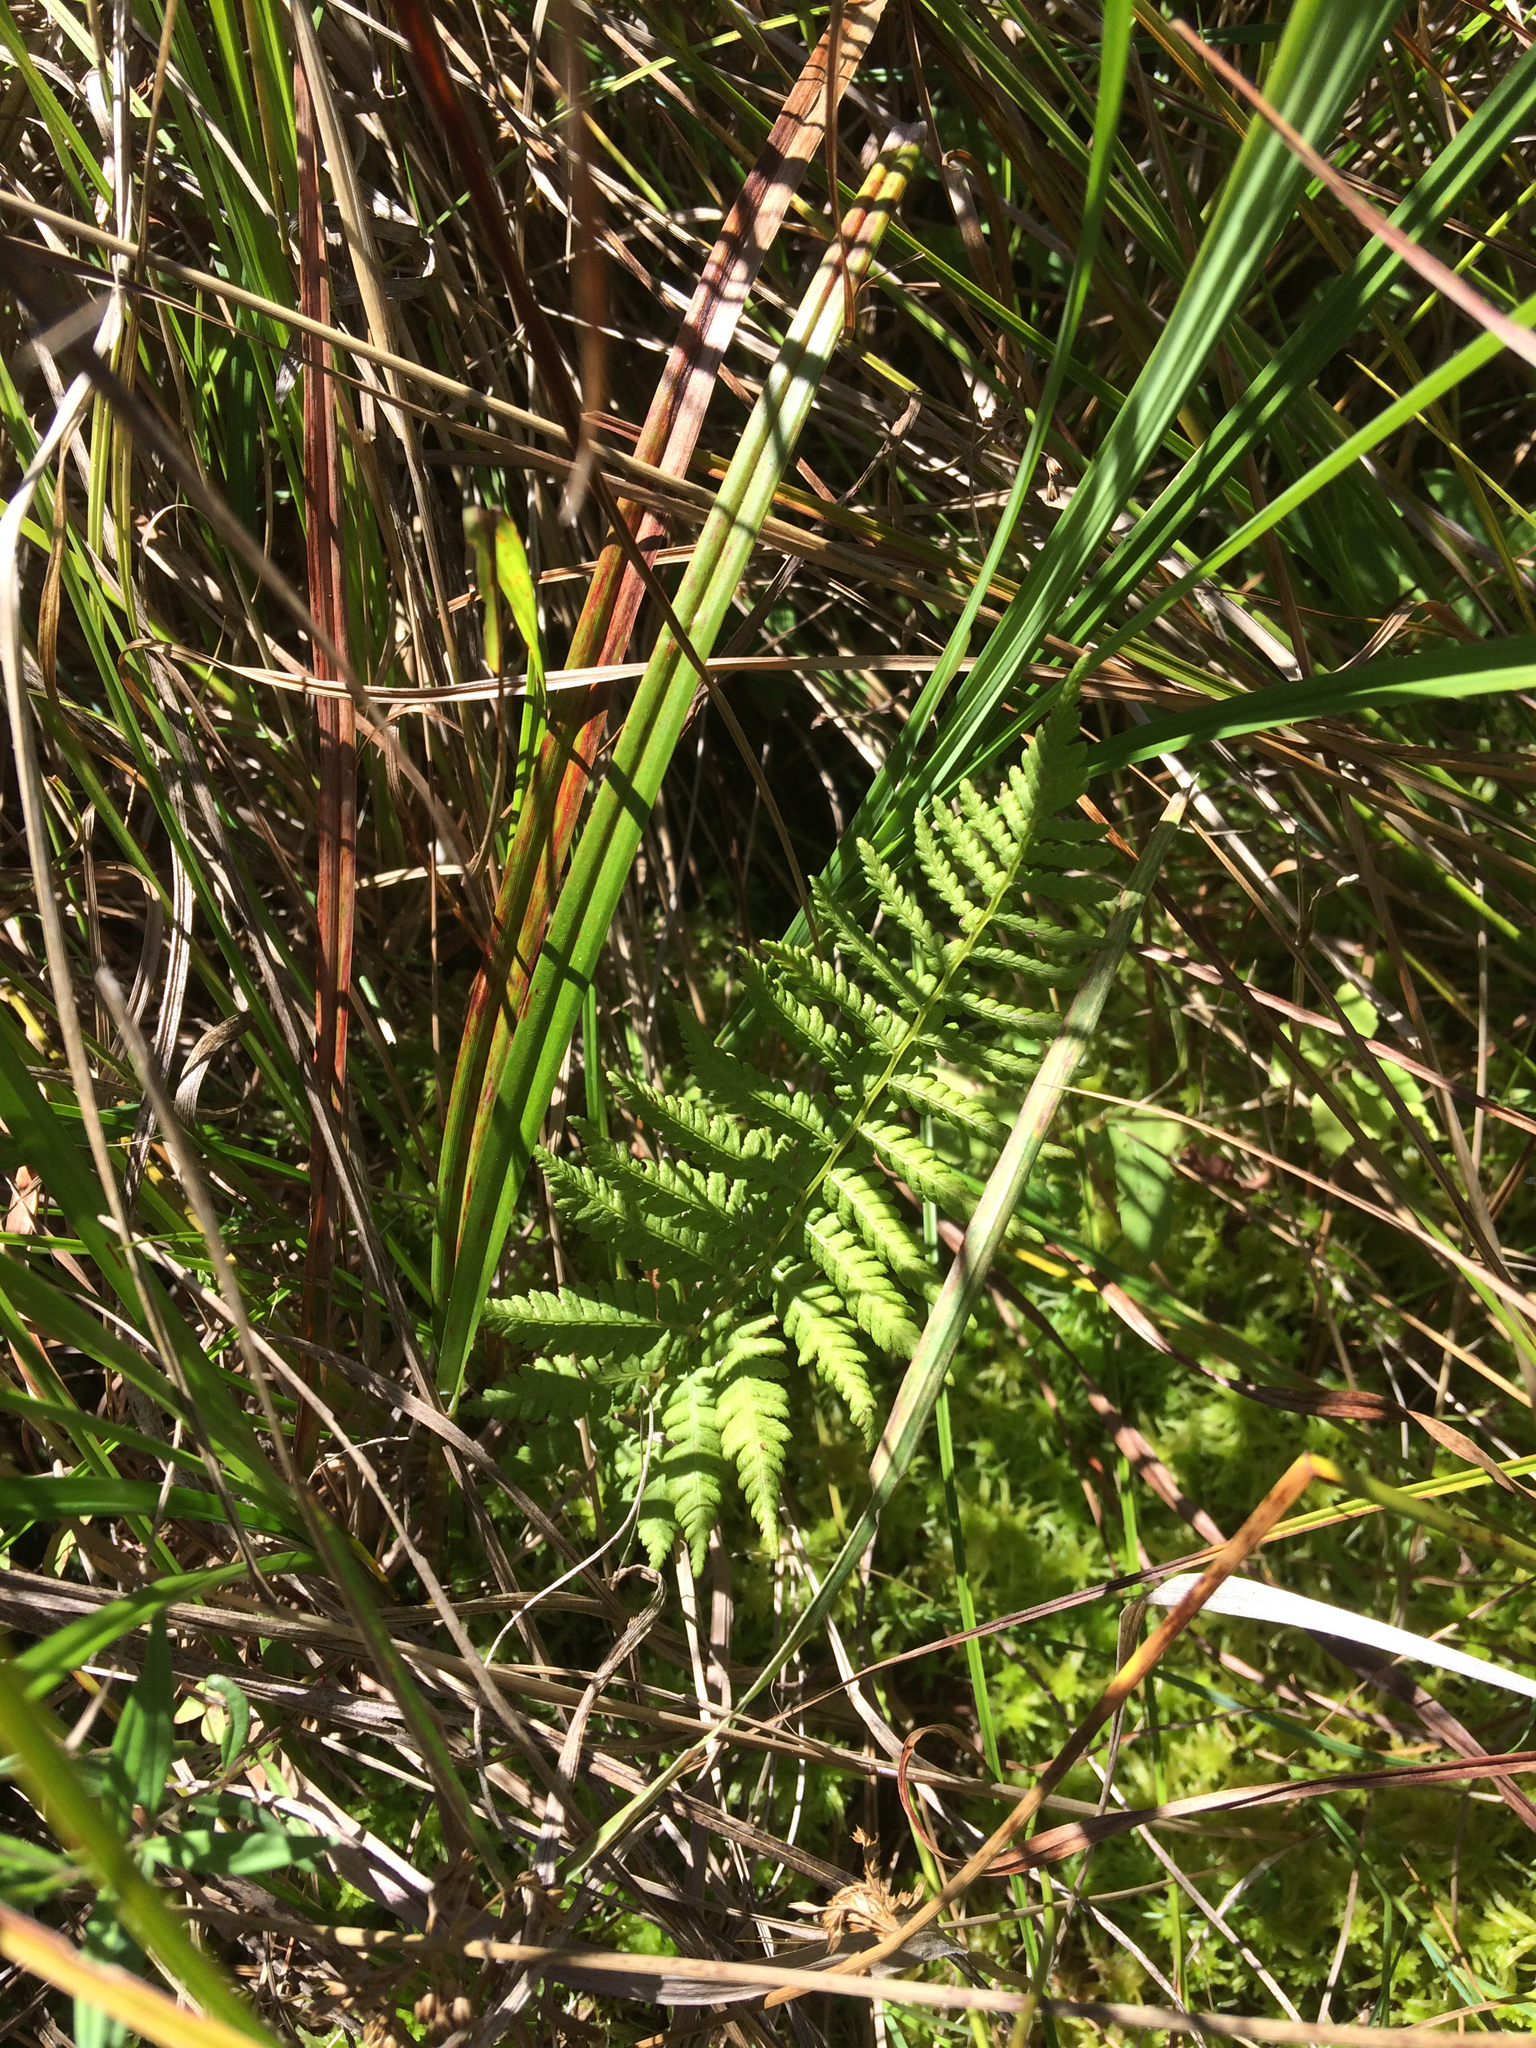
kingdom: Plantae
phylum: Tracheophyta
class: Polypodiopsida
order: Polypodiales
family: Thelypteridaceae
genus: Thelypteris
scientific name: Thelypteris palustris
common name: Marsh fern
